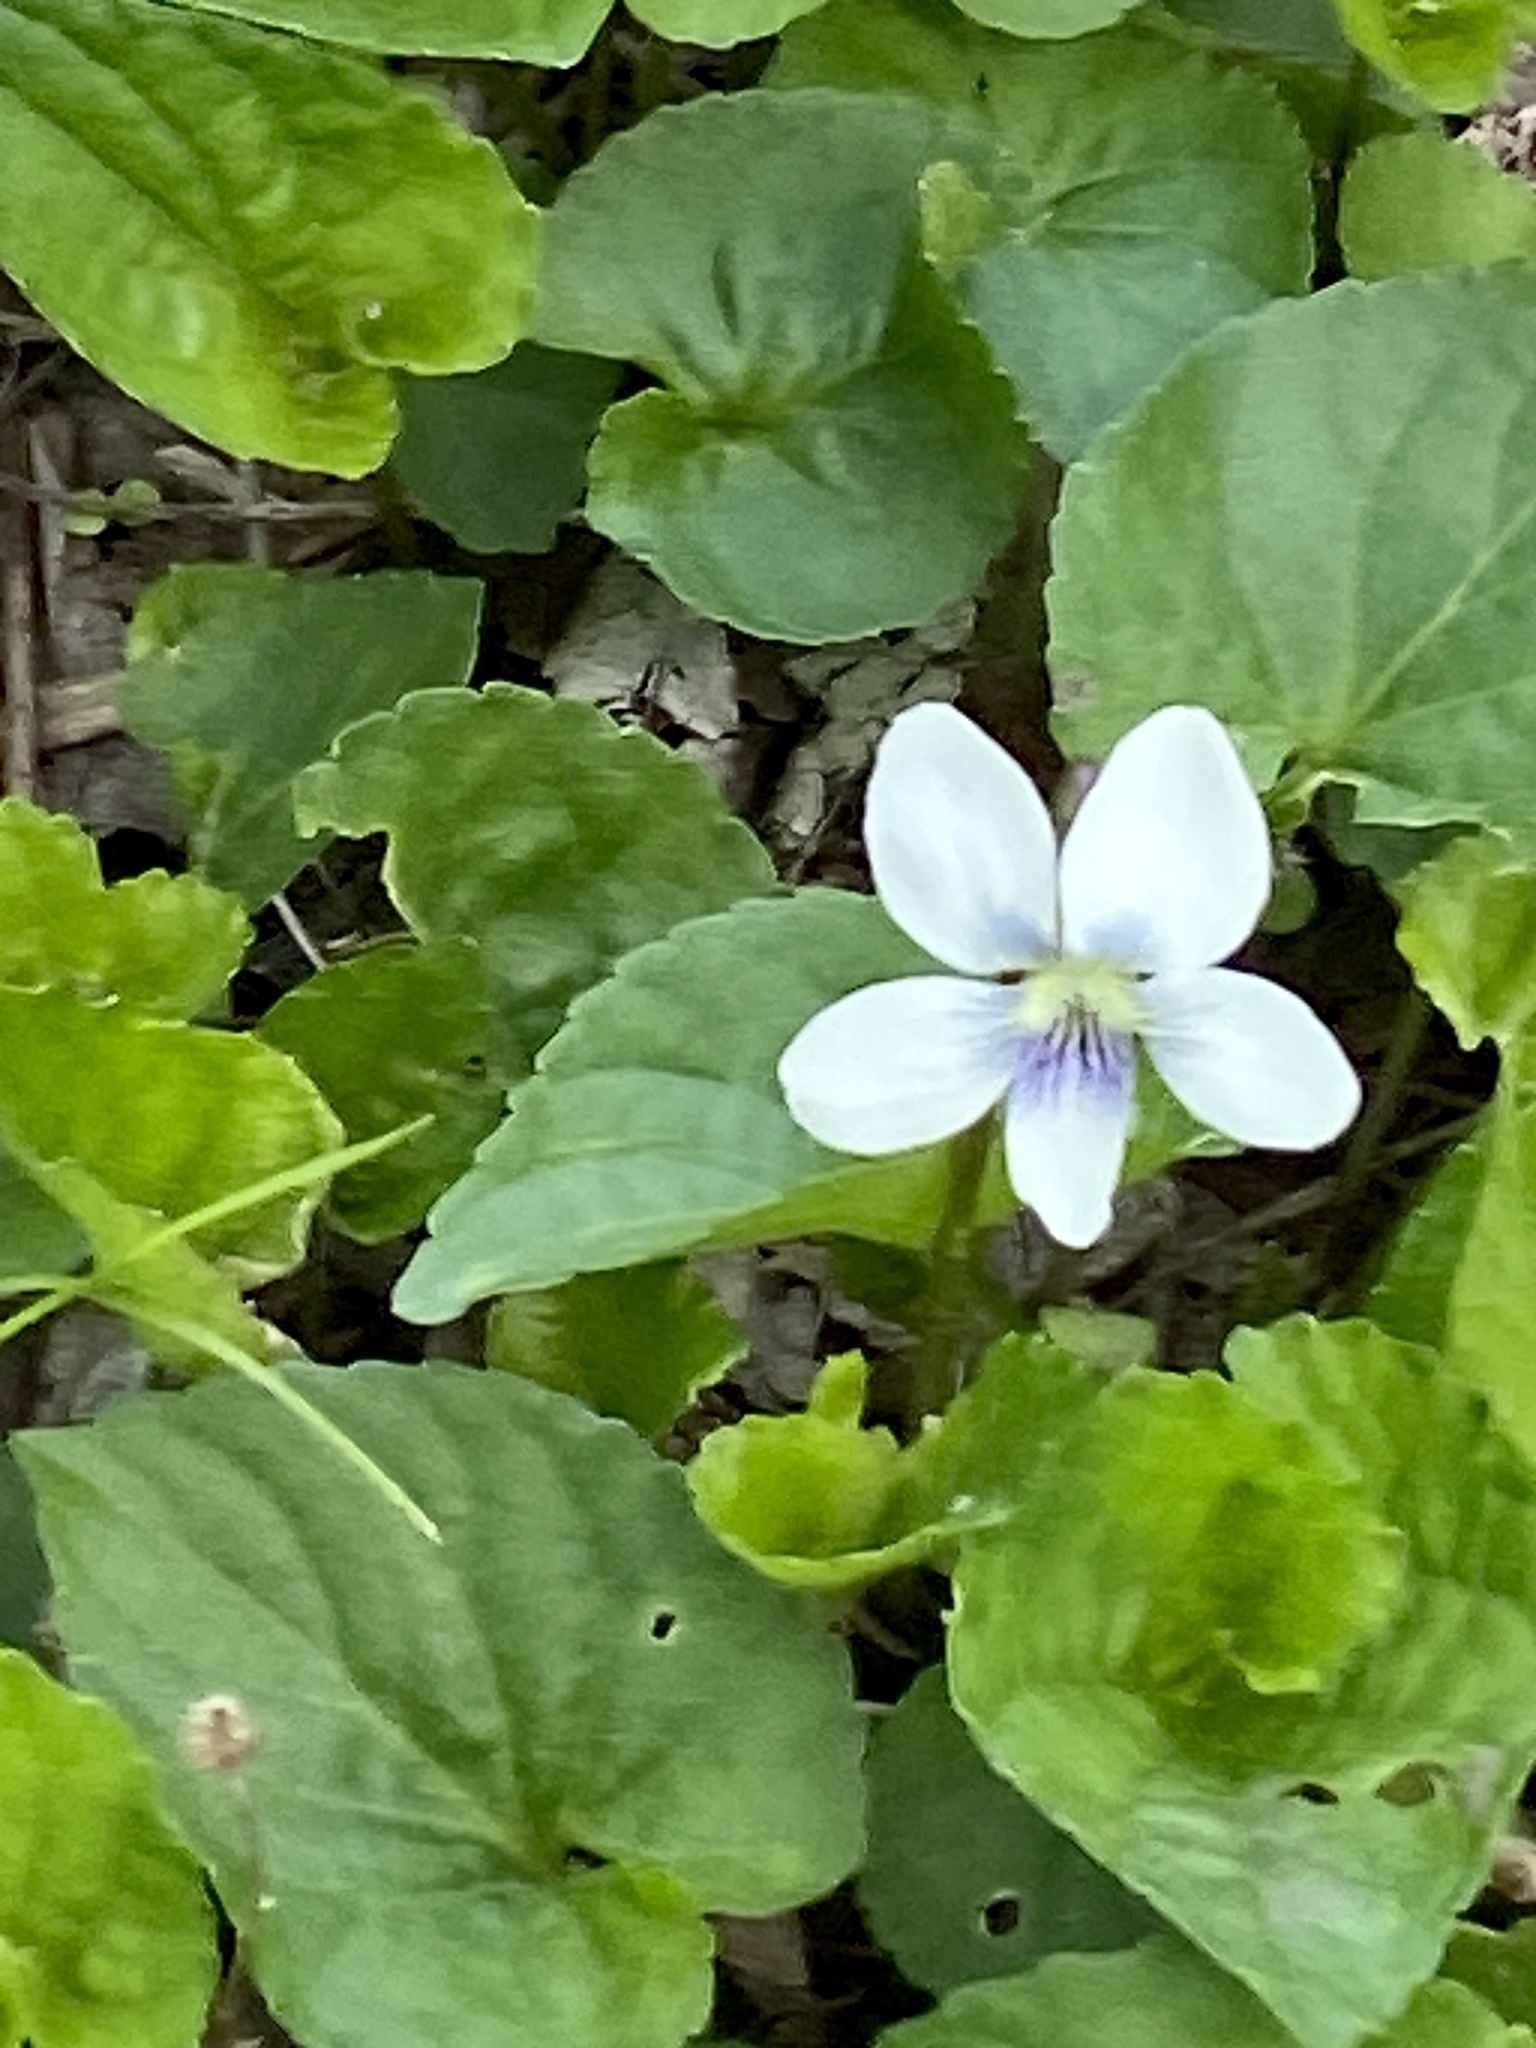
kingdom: Plantae
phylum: Tracheophyta
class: Magnoliopsida
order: Malpighiales
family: Violaceae
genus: Viola
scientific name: Viola sororia
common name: Dooryard violet
